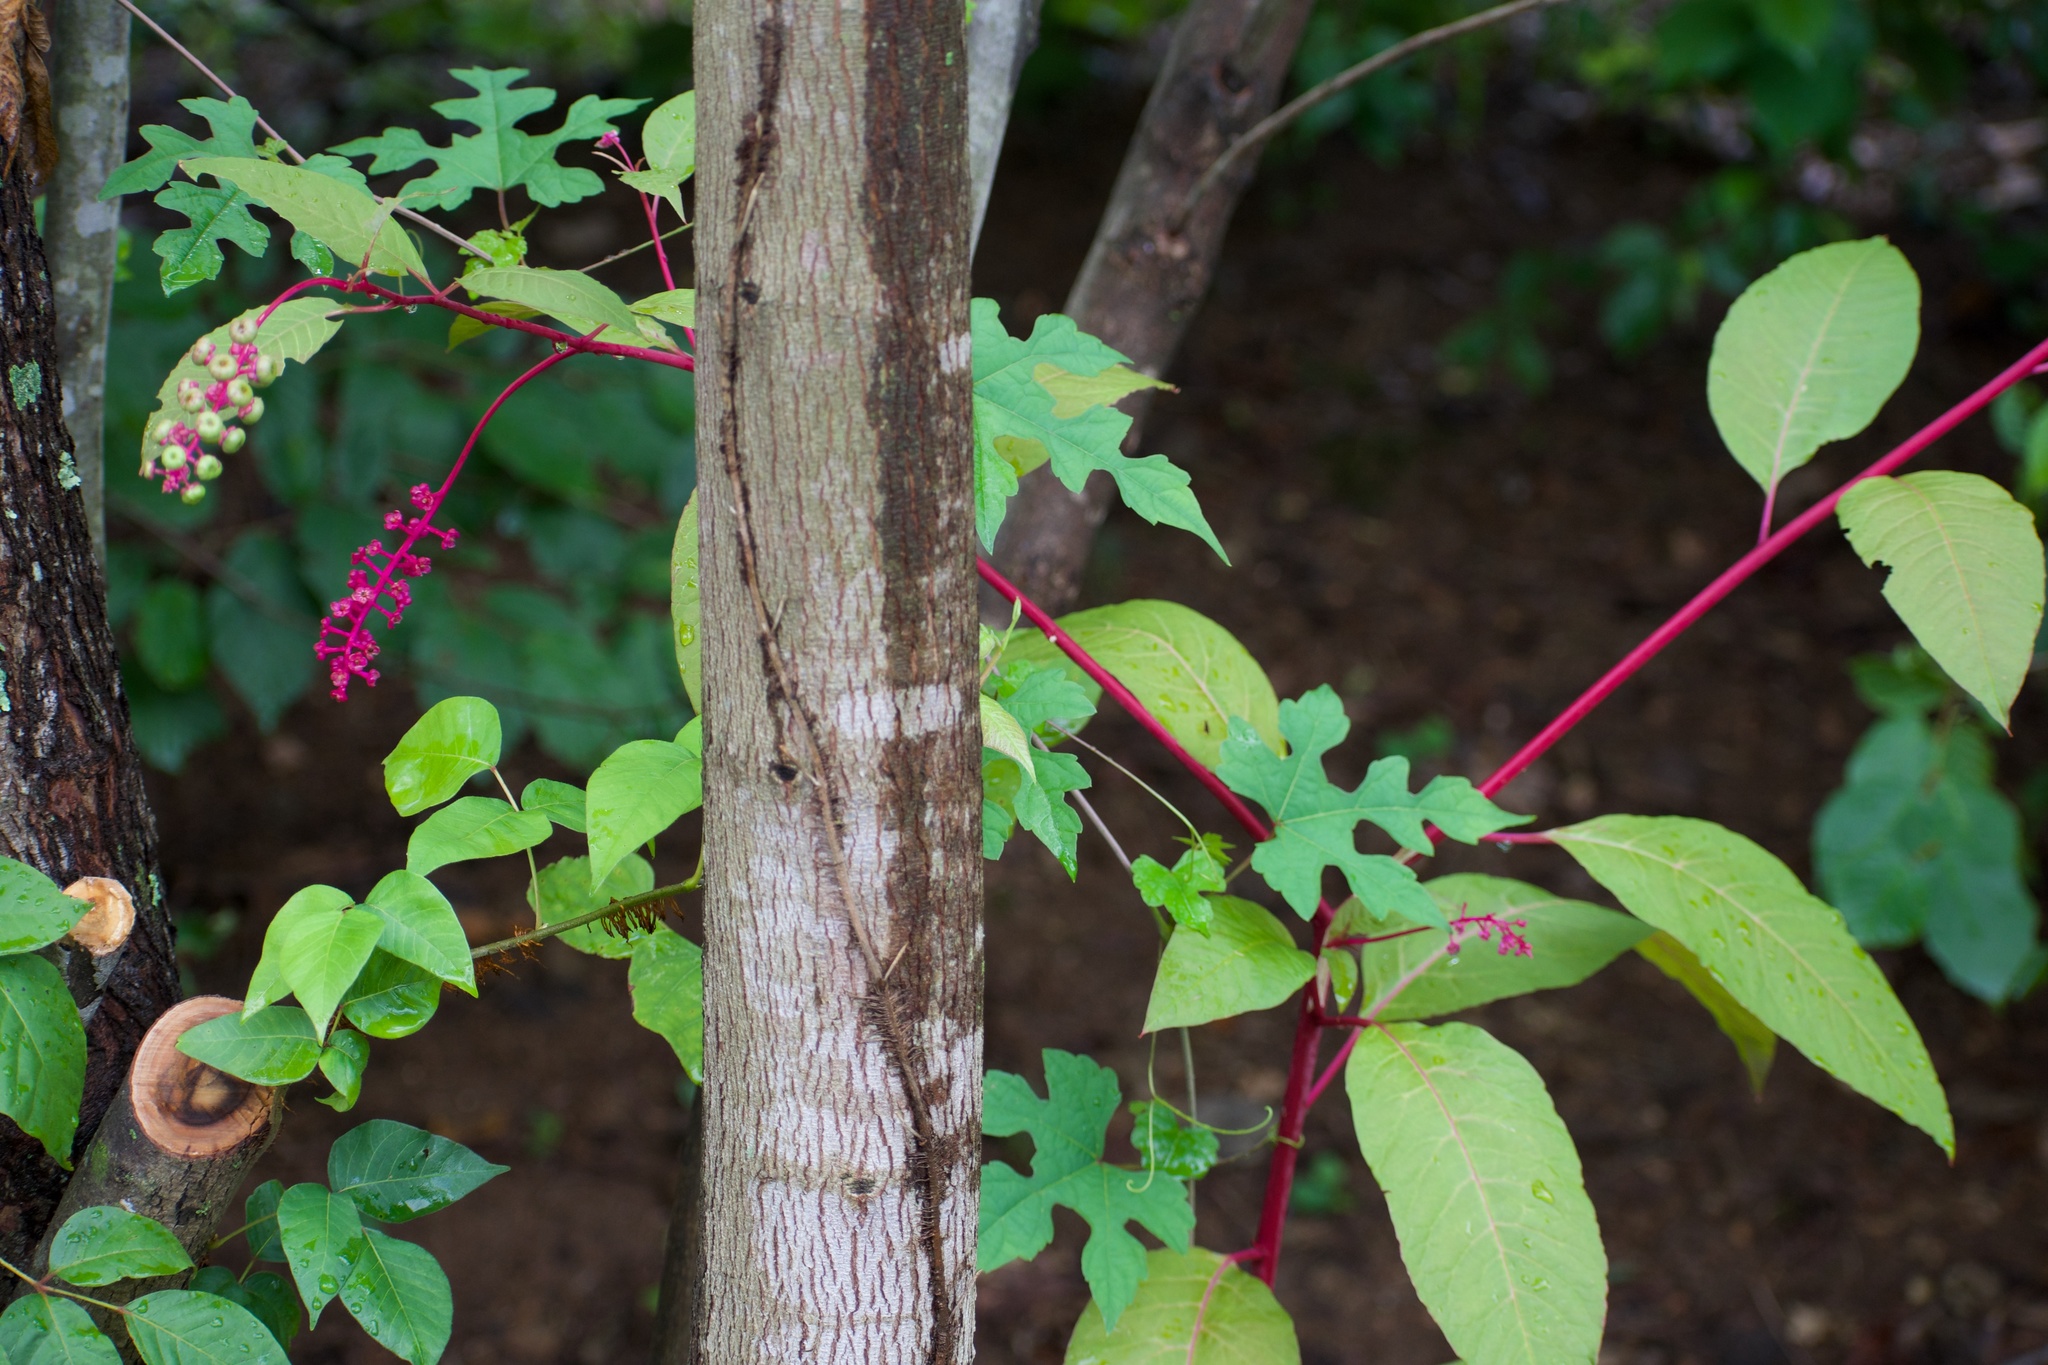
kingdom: Plantae
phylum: Tracheophyta
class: Magnoliopsida
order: Caryophyllales
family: Phytolaccaceae
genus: Phytolacca
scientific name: Phytolacca americana
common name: American pokeweed
